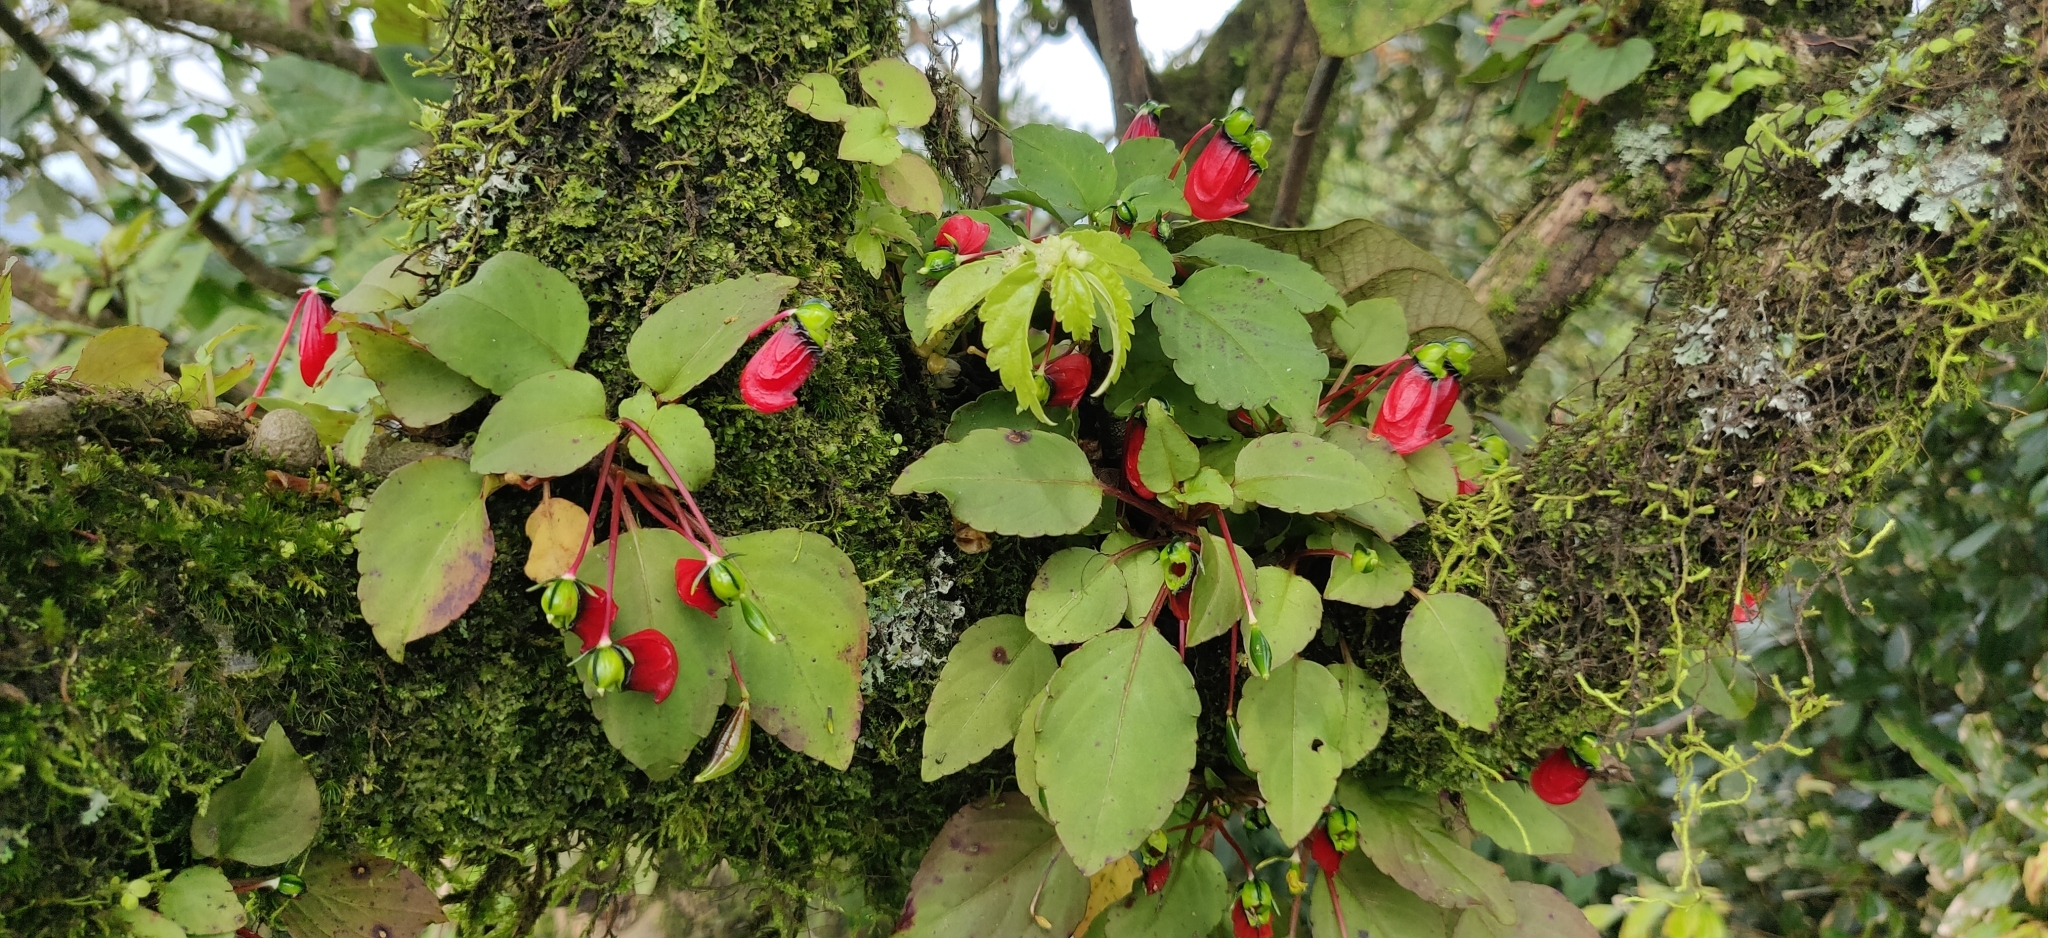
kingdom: Plantae
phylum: Tracheophyta
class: Magnoliopsida
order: Ericales
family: Balsaminaceae
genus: Impatiens
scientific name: Impatiens parasitica
